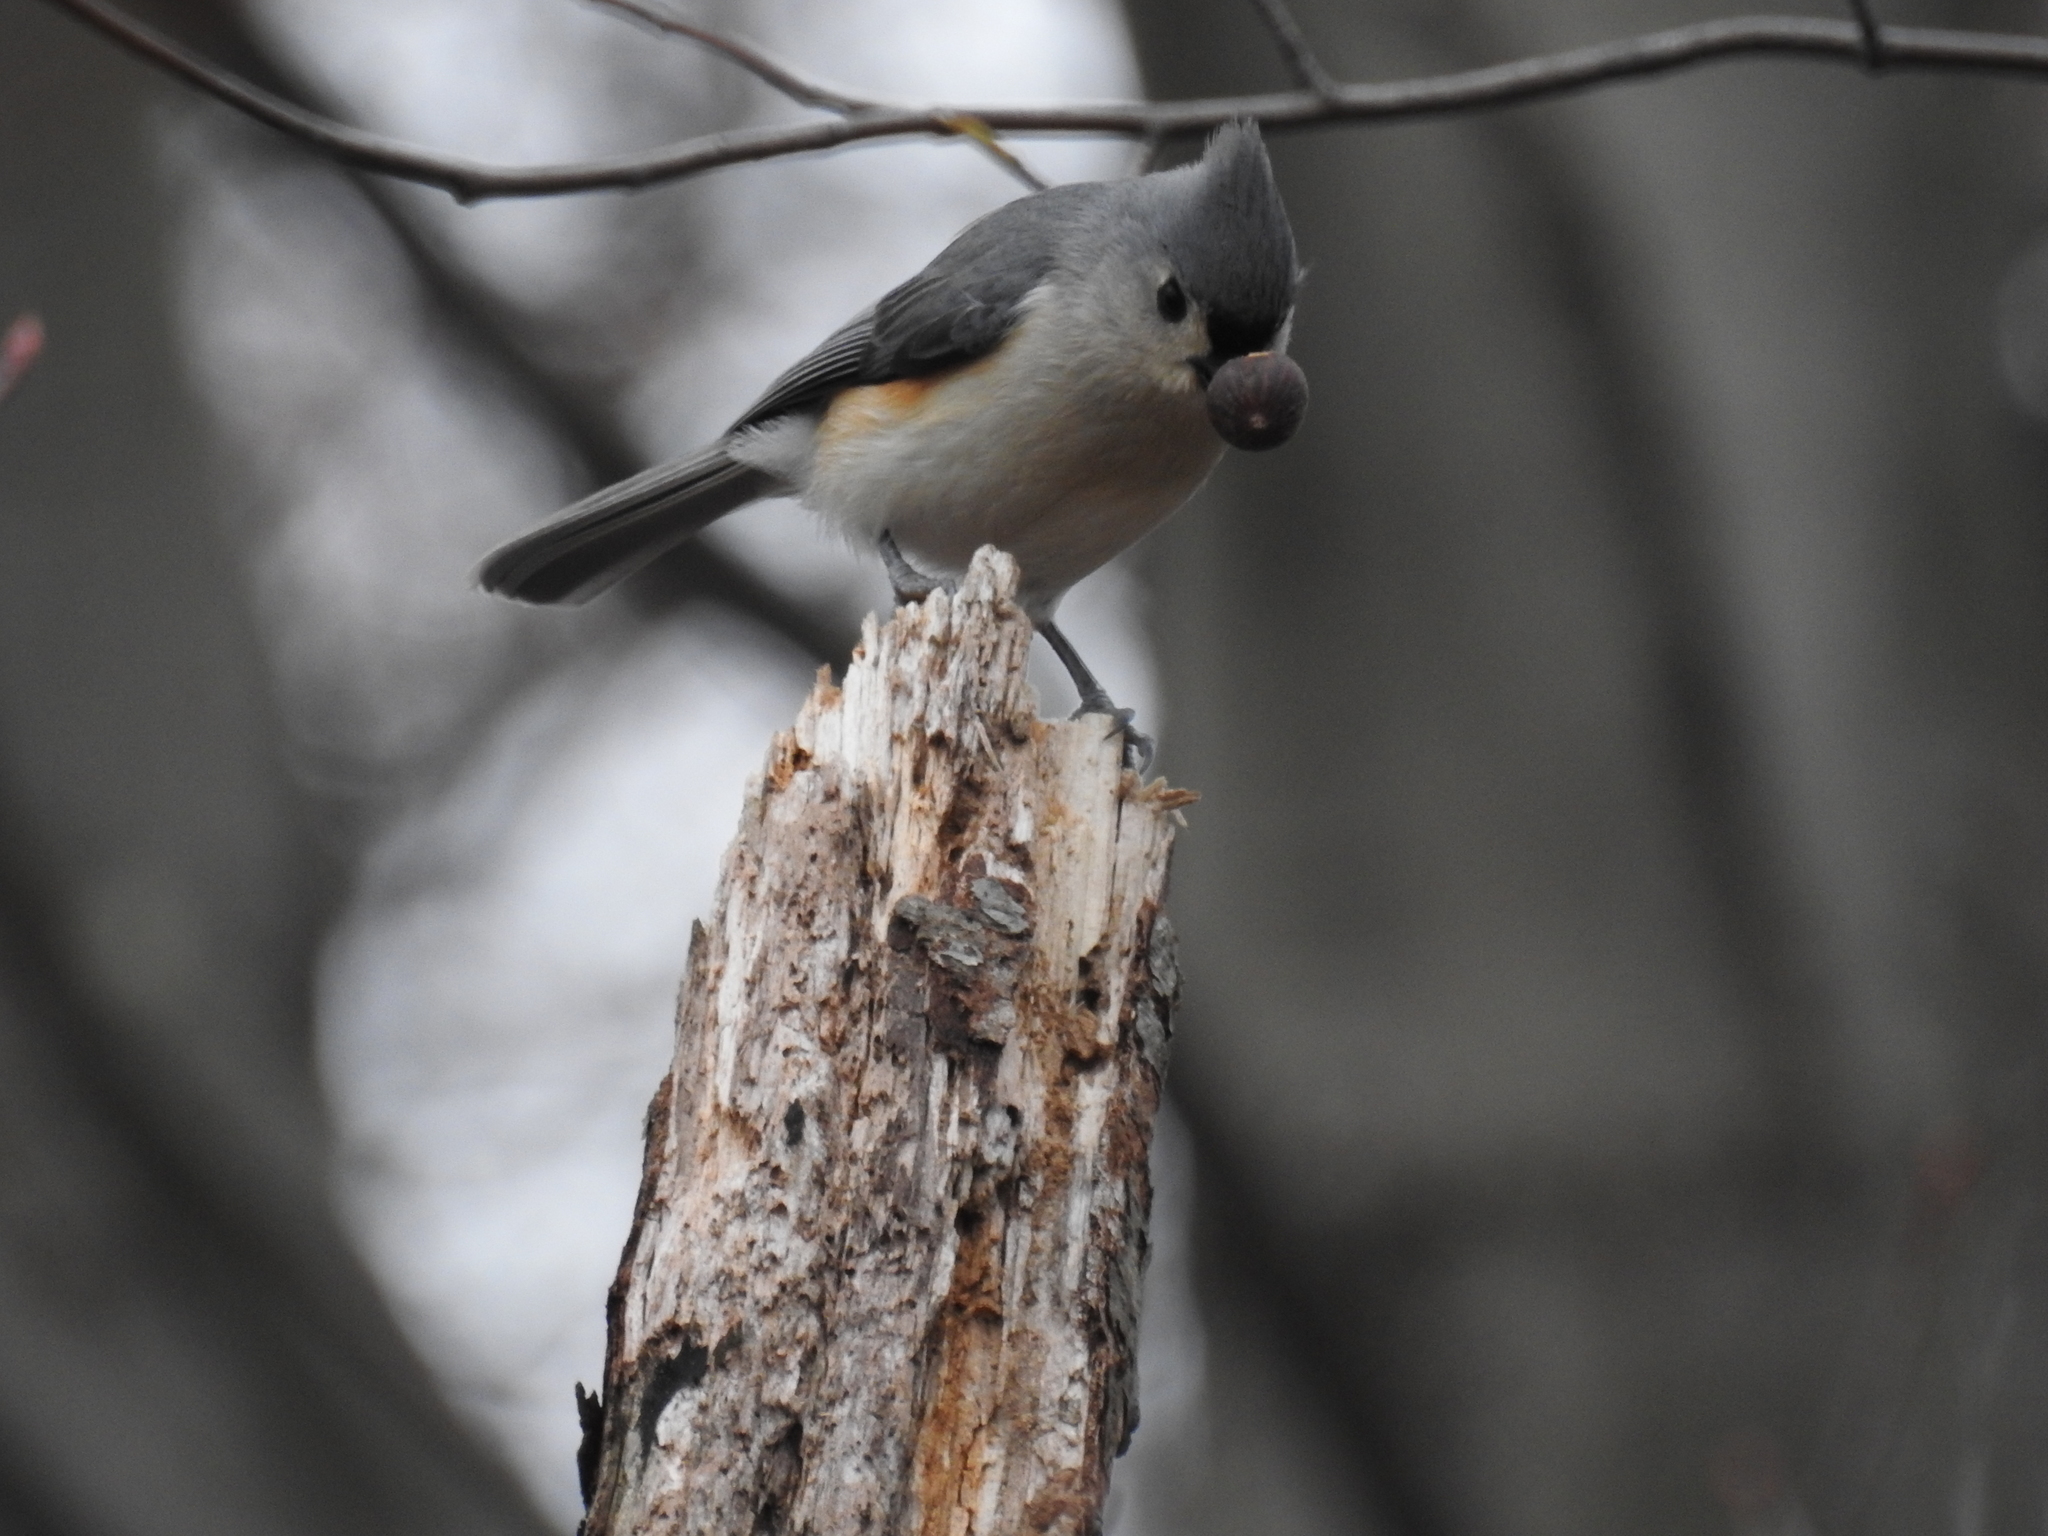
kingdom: Animalia
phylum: Chordata
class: Aves
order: Passeriformes
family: Paridae
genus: Baeolophus
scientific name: Baeolophus bicolor
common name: Tufted titmouse
